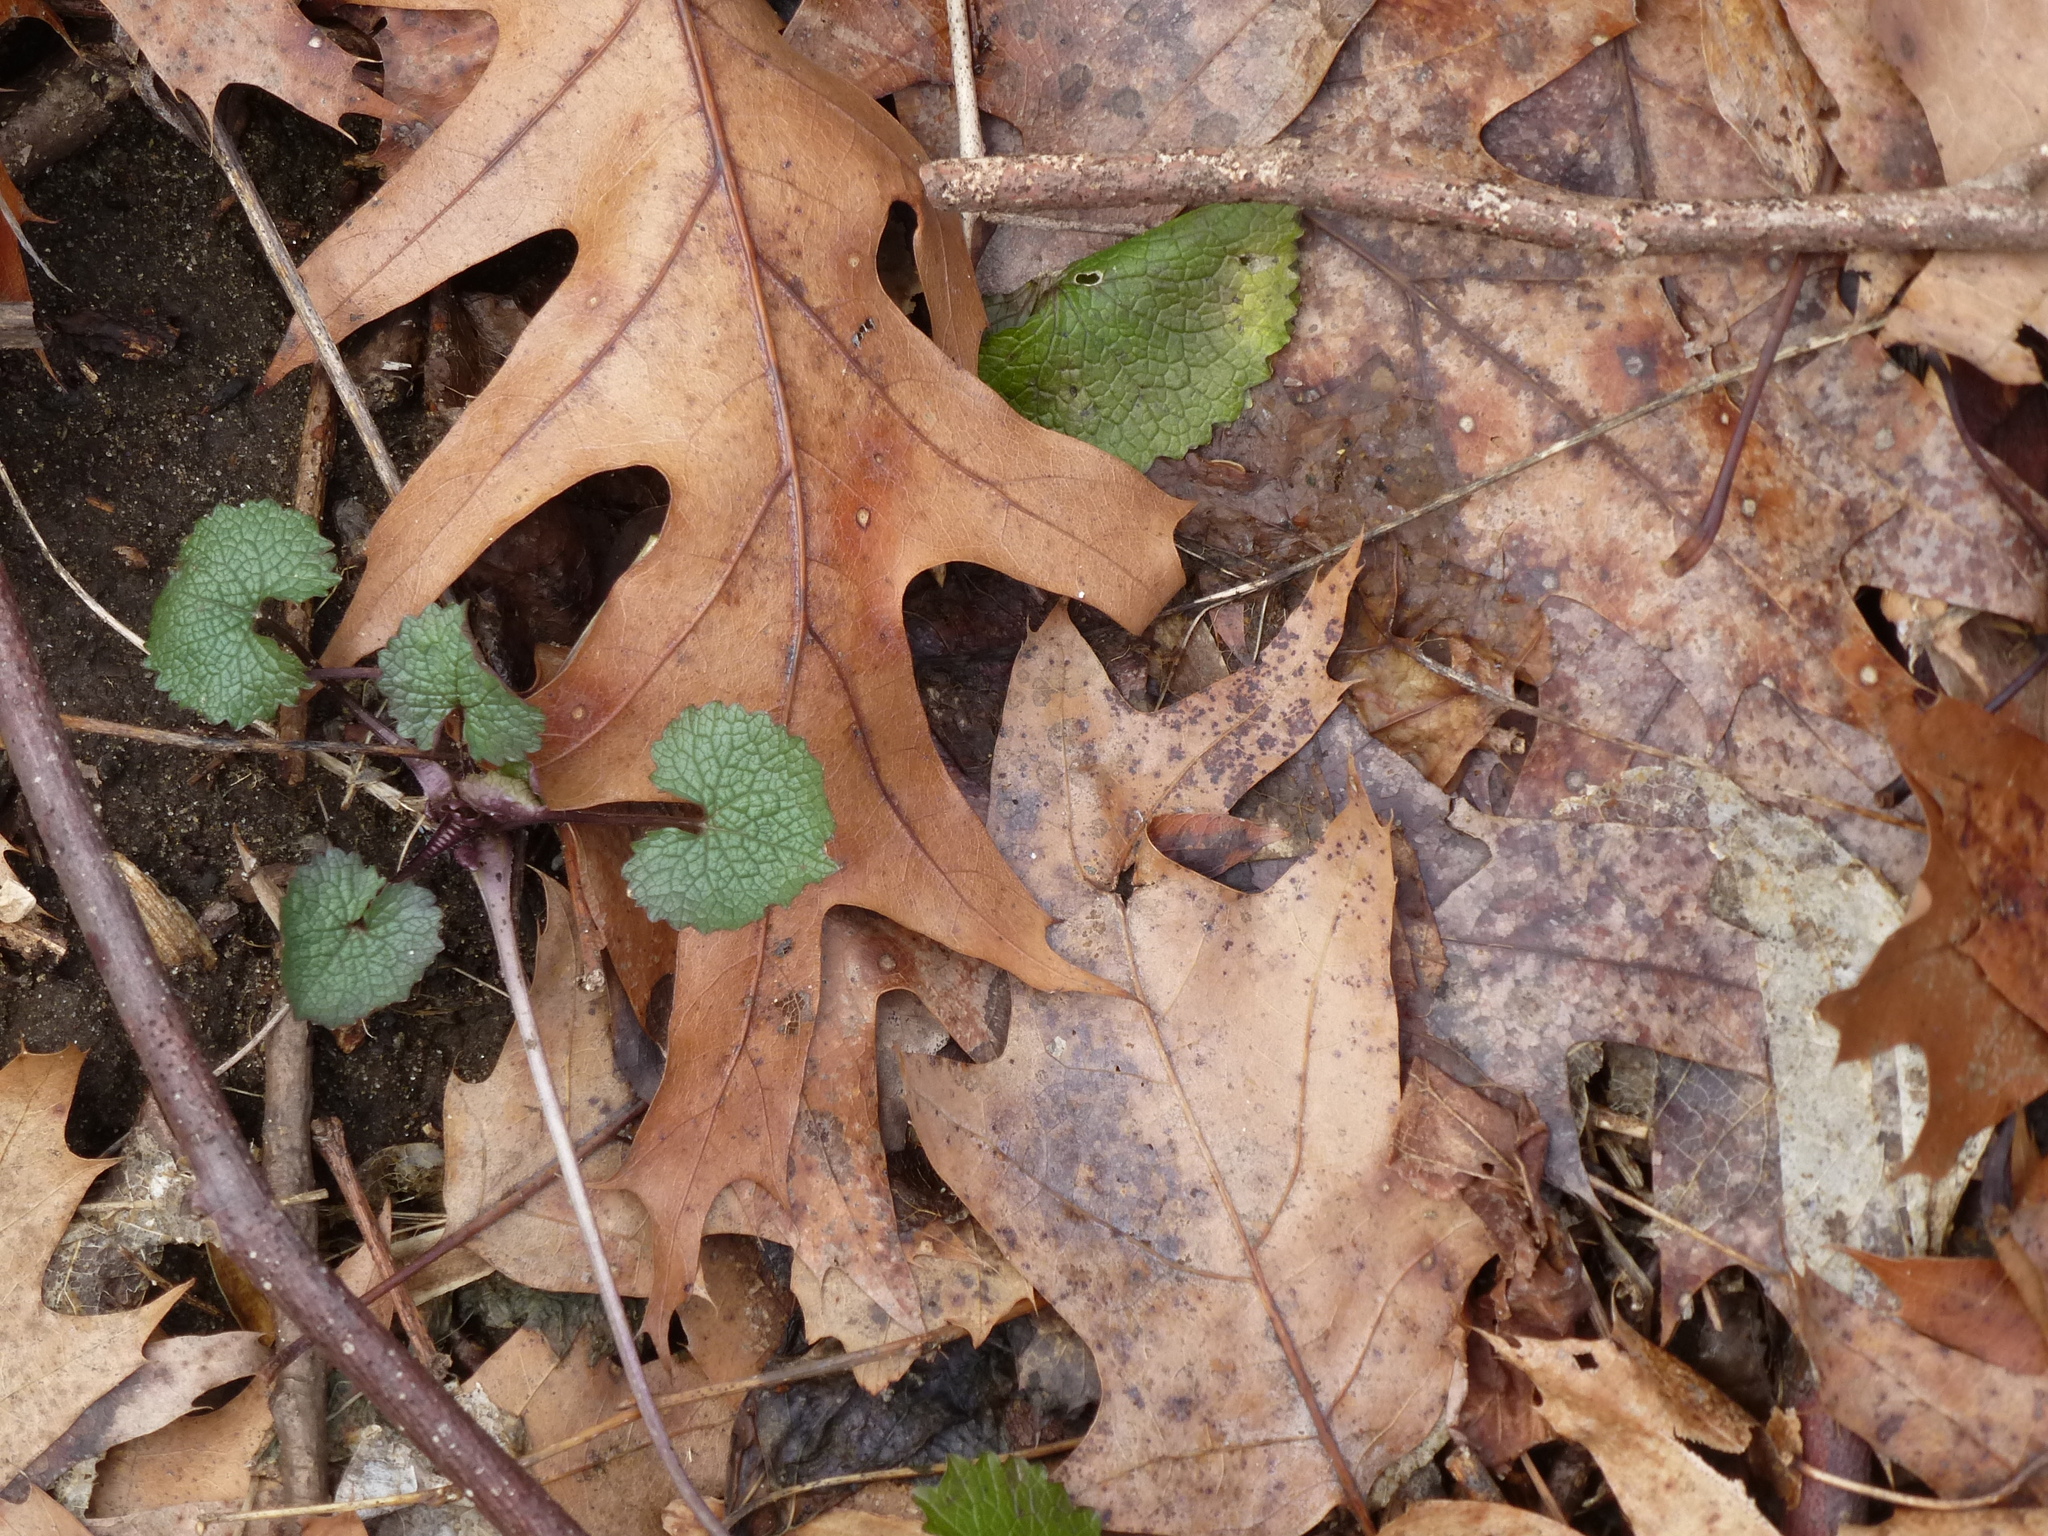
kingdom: Plantae
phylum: Tracheophyta
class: Magnoliopsida
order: Brassicales
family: Brassicaceae
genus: Alliaria
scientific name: Alliaria petiolata
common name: Garlic mustard
